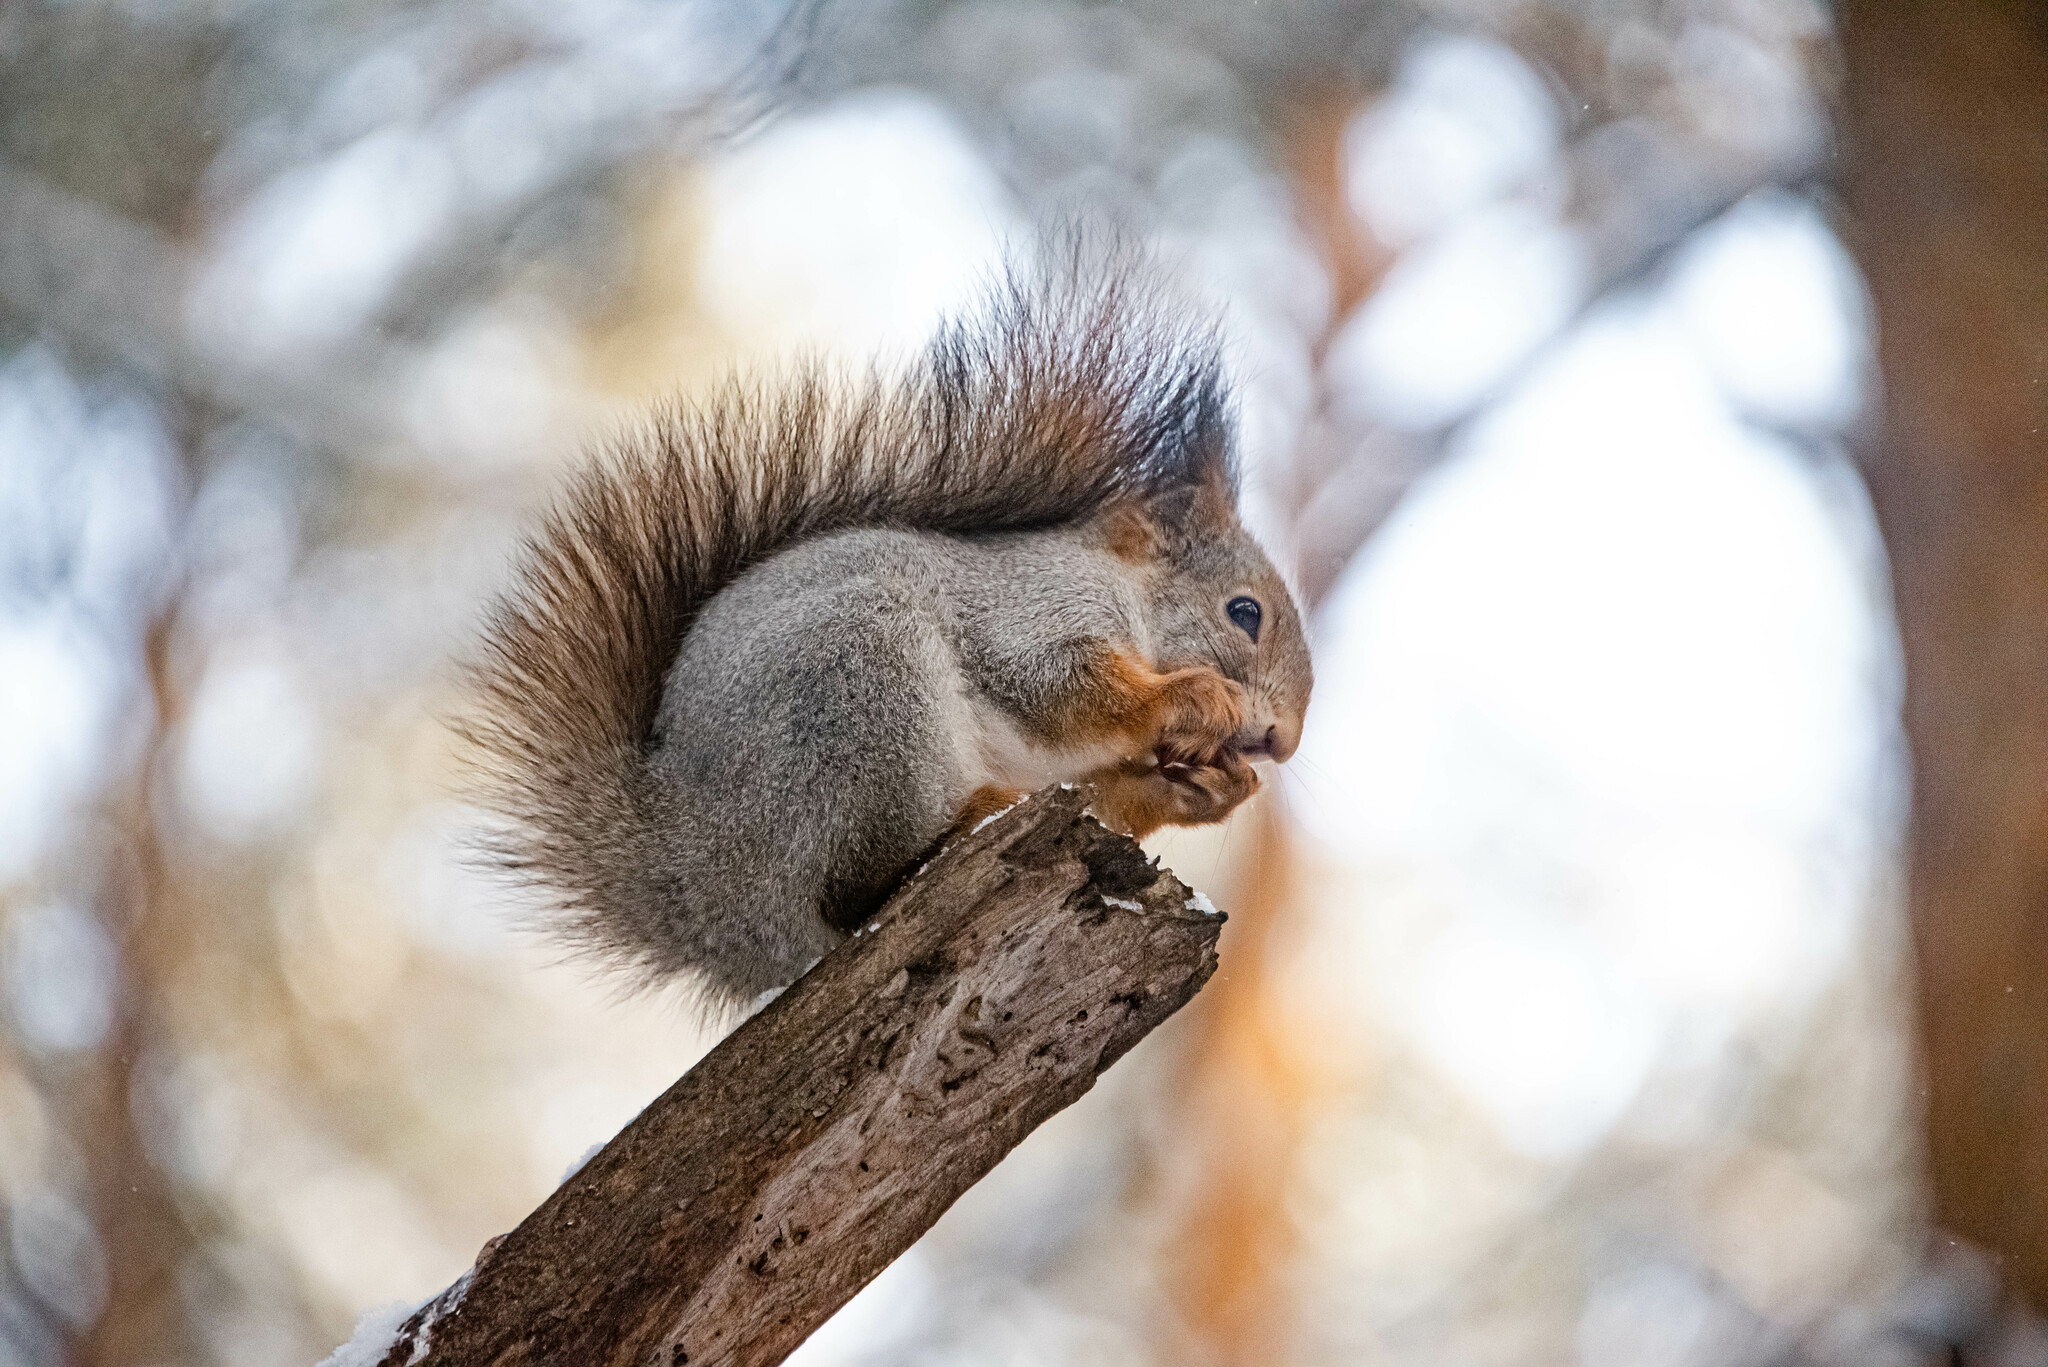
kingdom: Animalia
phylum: Chordata
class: Mammalia
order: Rodentia
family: Sciuridae
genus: Sciurus
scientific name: Sciurus vulgaris
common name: Eurasian red squirrel
